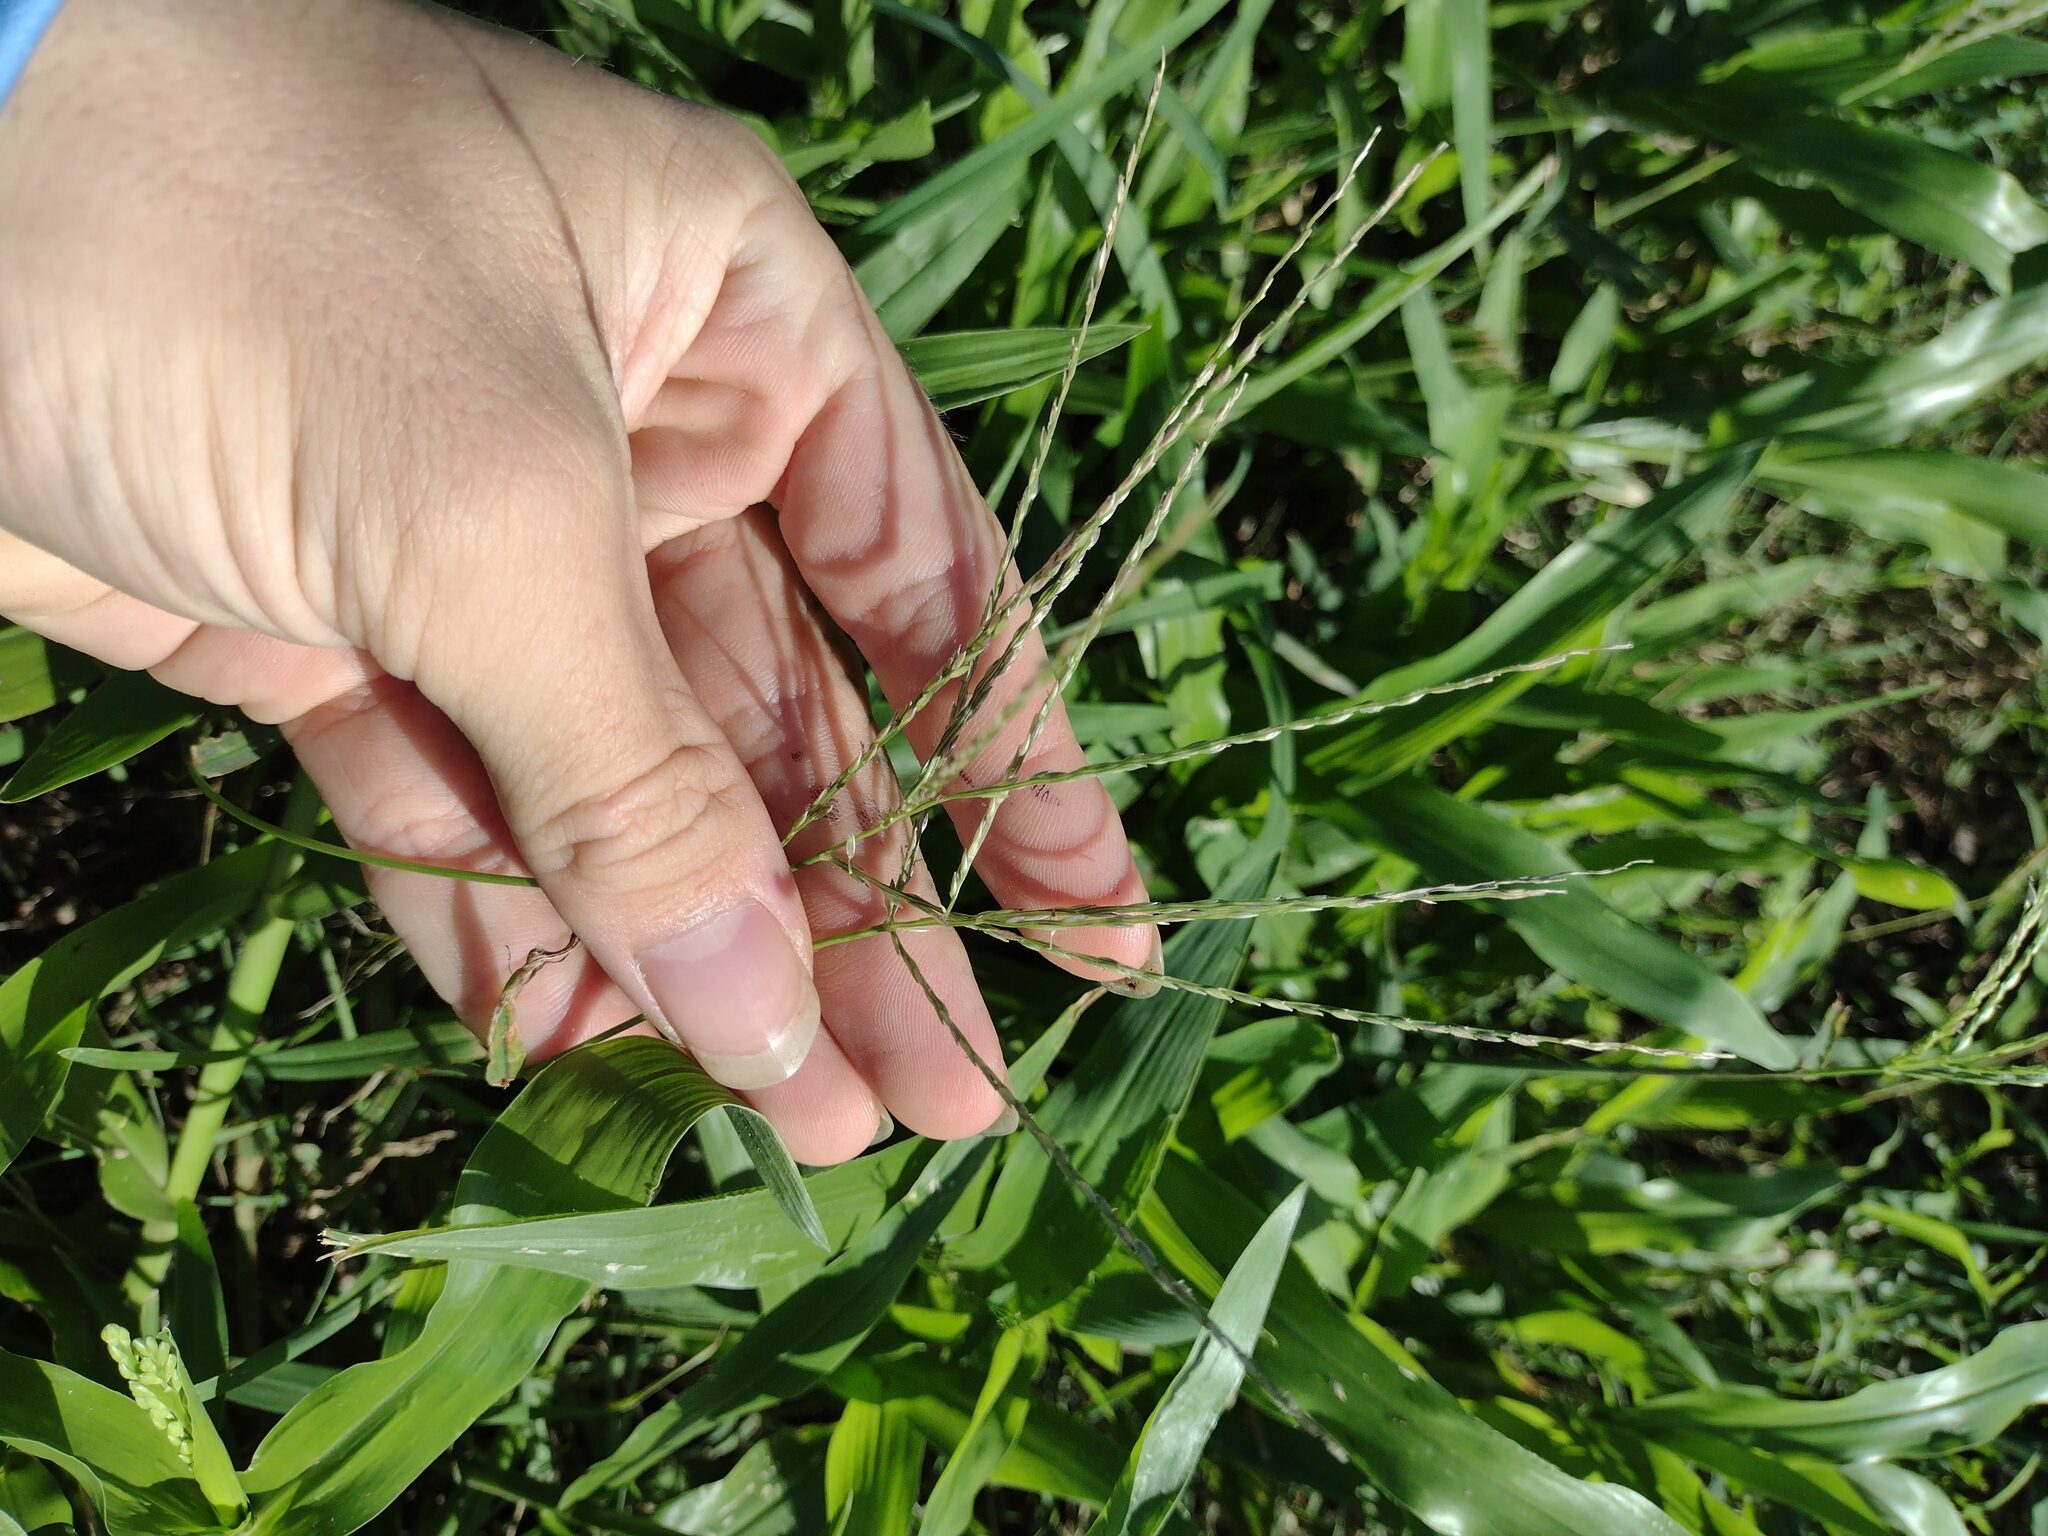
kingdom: Plantae
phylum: Tracheophyta
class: Liliopsida
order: Poales
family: Poaceae
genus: Digitaria
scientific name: Digitaria ciliaris
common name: Tropical finger-grass
